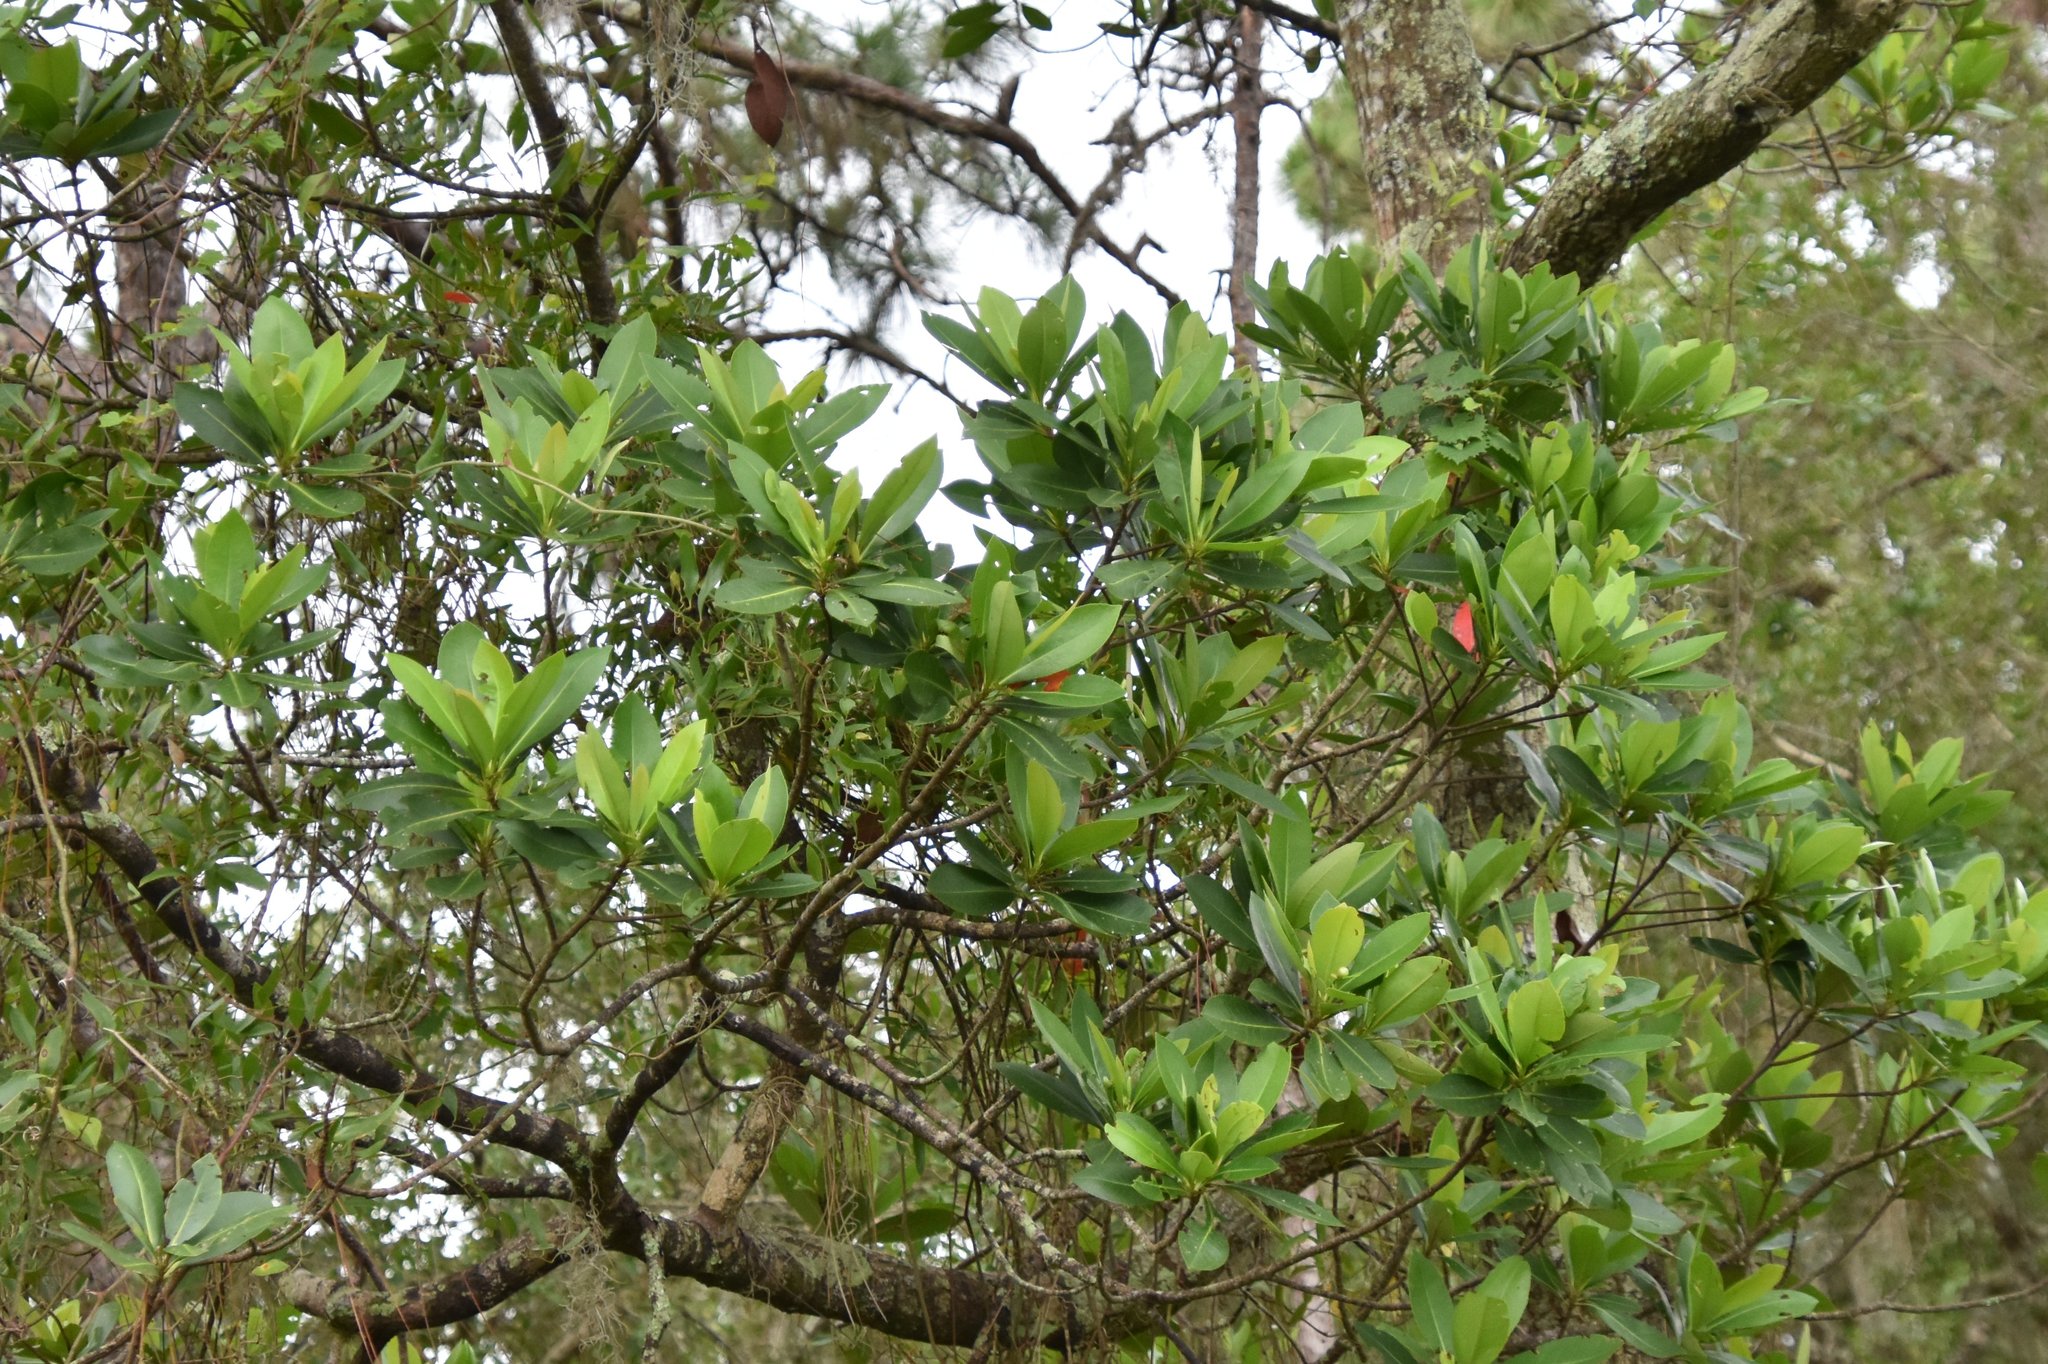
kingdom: Plantae
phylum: Tracheophyta
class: Magnoliopsida
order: Ericales
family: Theaceae
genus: Gordonia
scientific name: Gordonia lasianthus
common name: Loblolly bay
